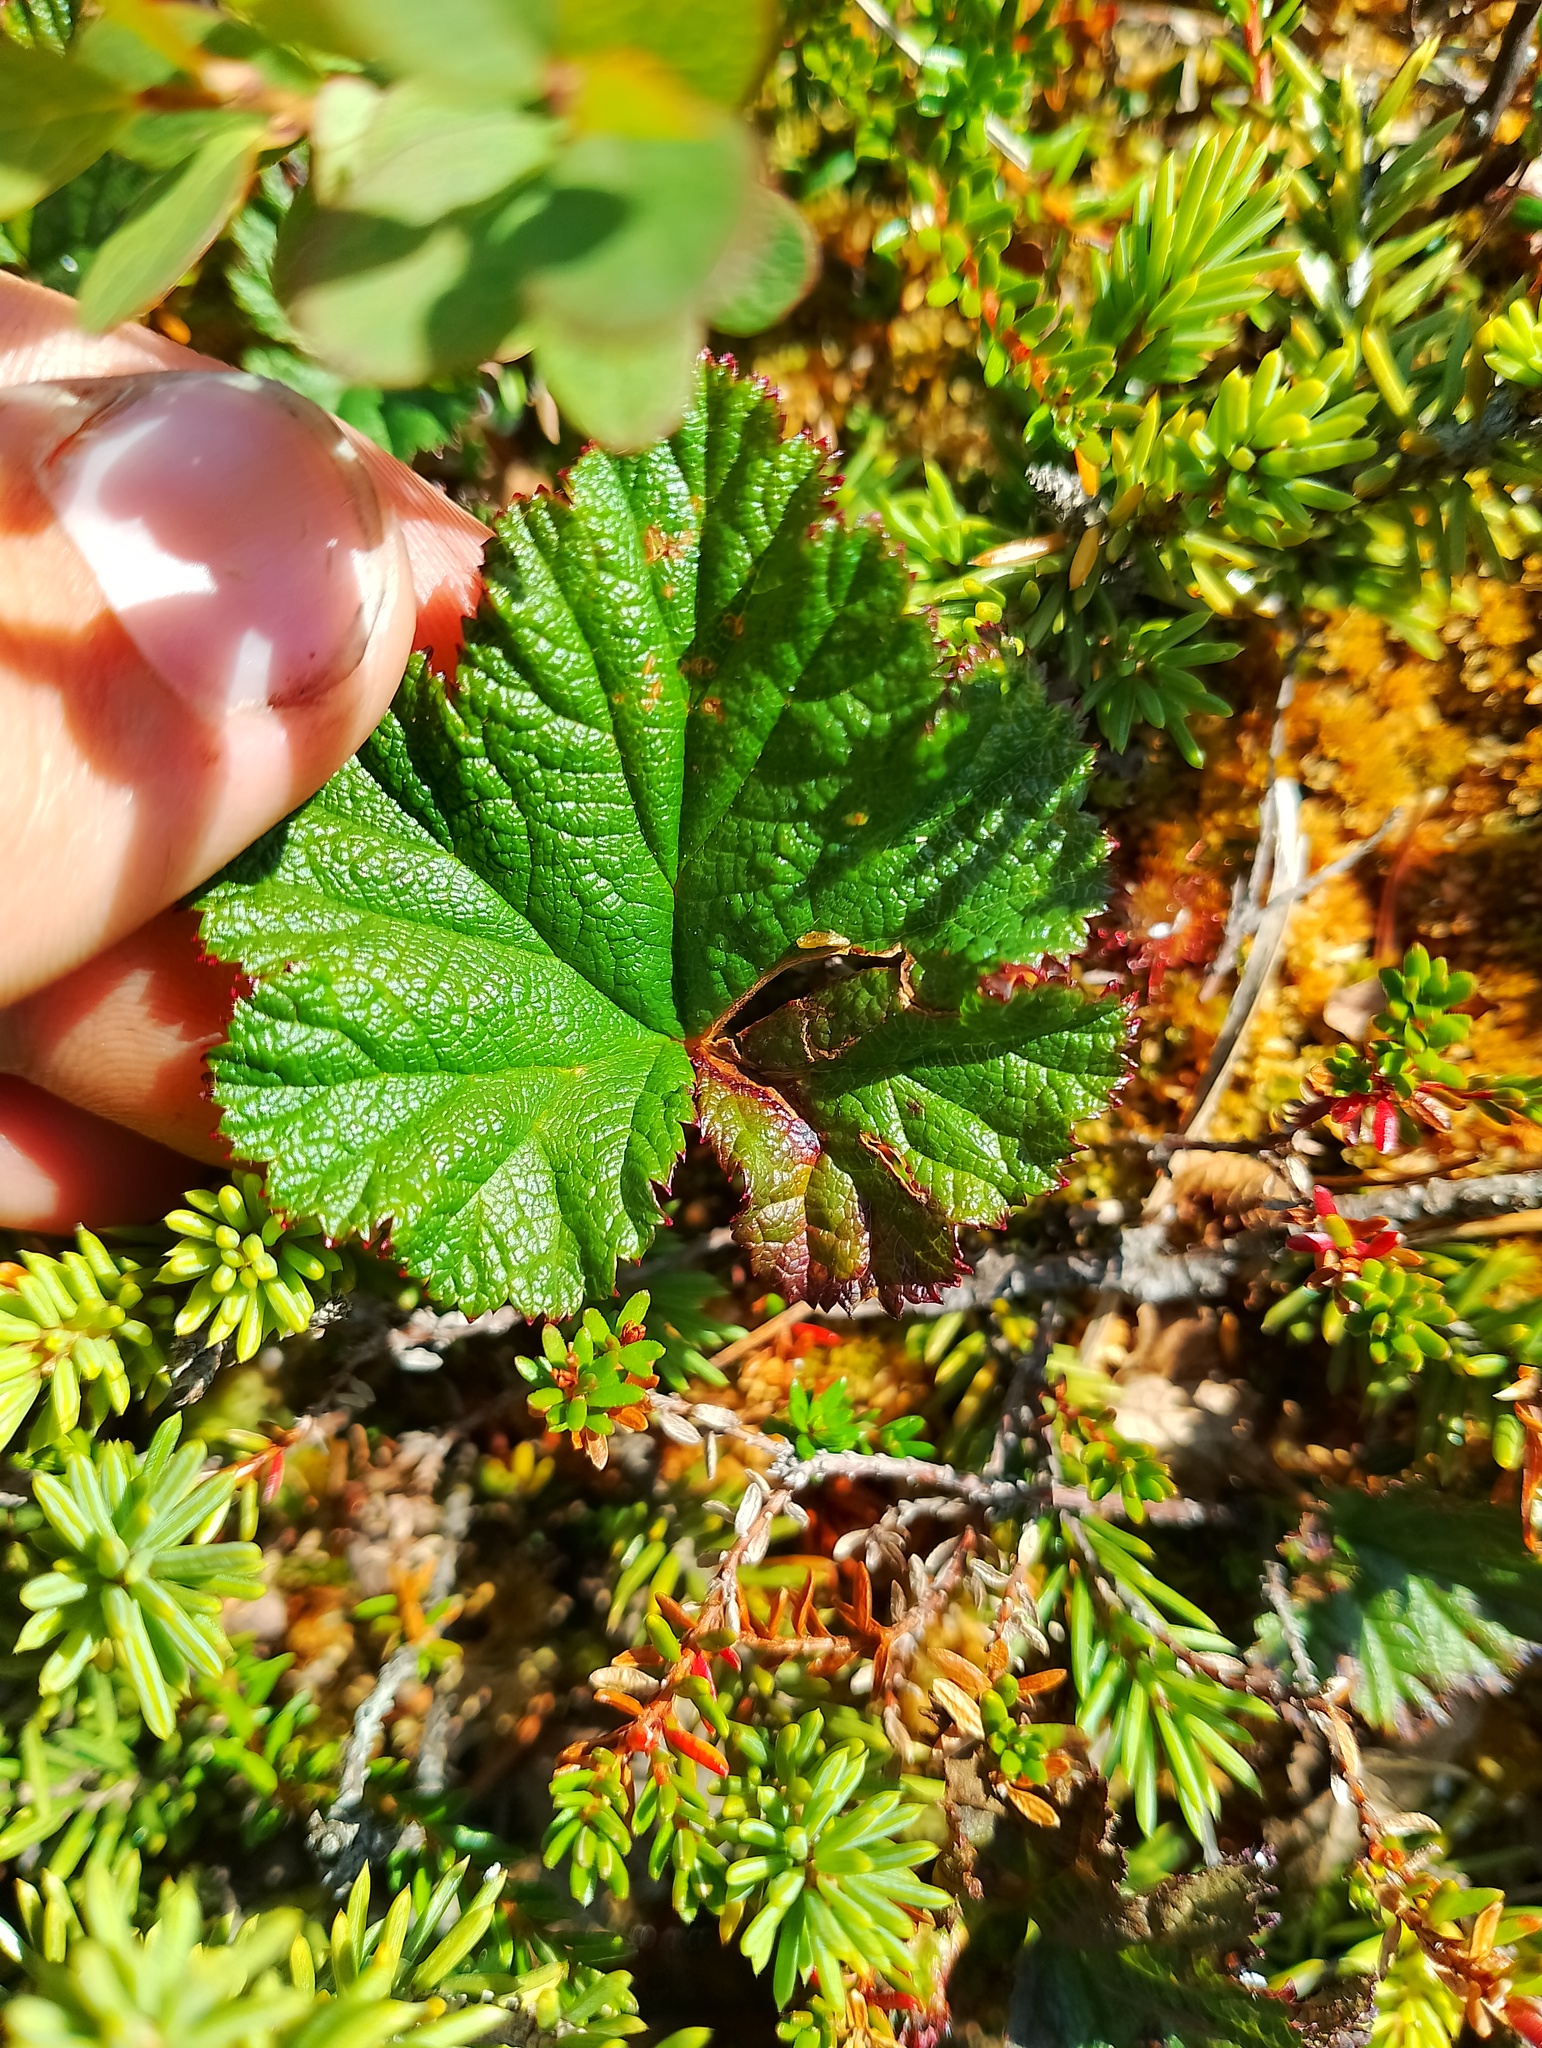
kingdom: Plantae
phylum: Tracheophyta
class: Magnoliopsida
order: Rosales
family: Rosaceae
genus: Rubus
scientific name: Rubus chamaemorus
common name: Cloudberry
